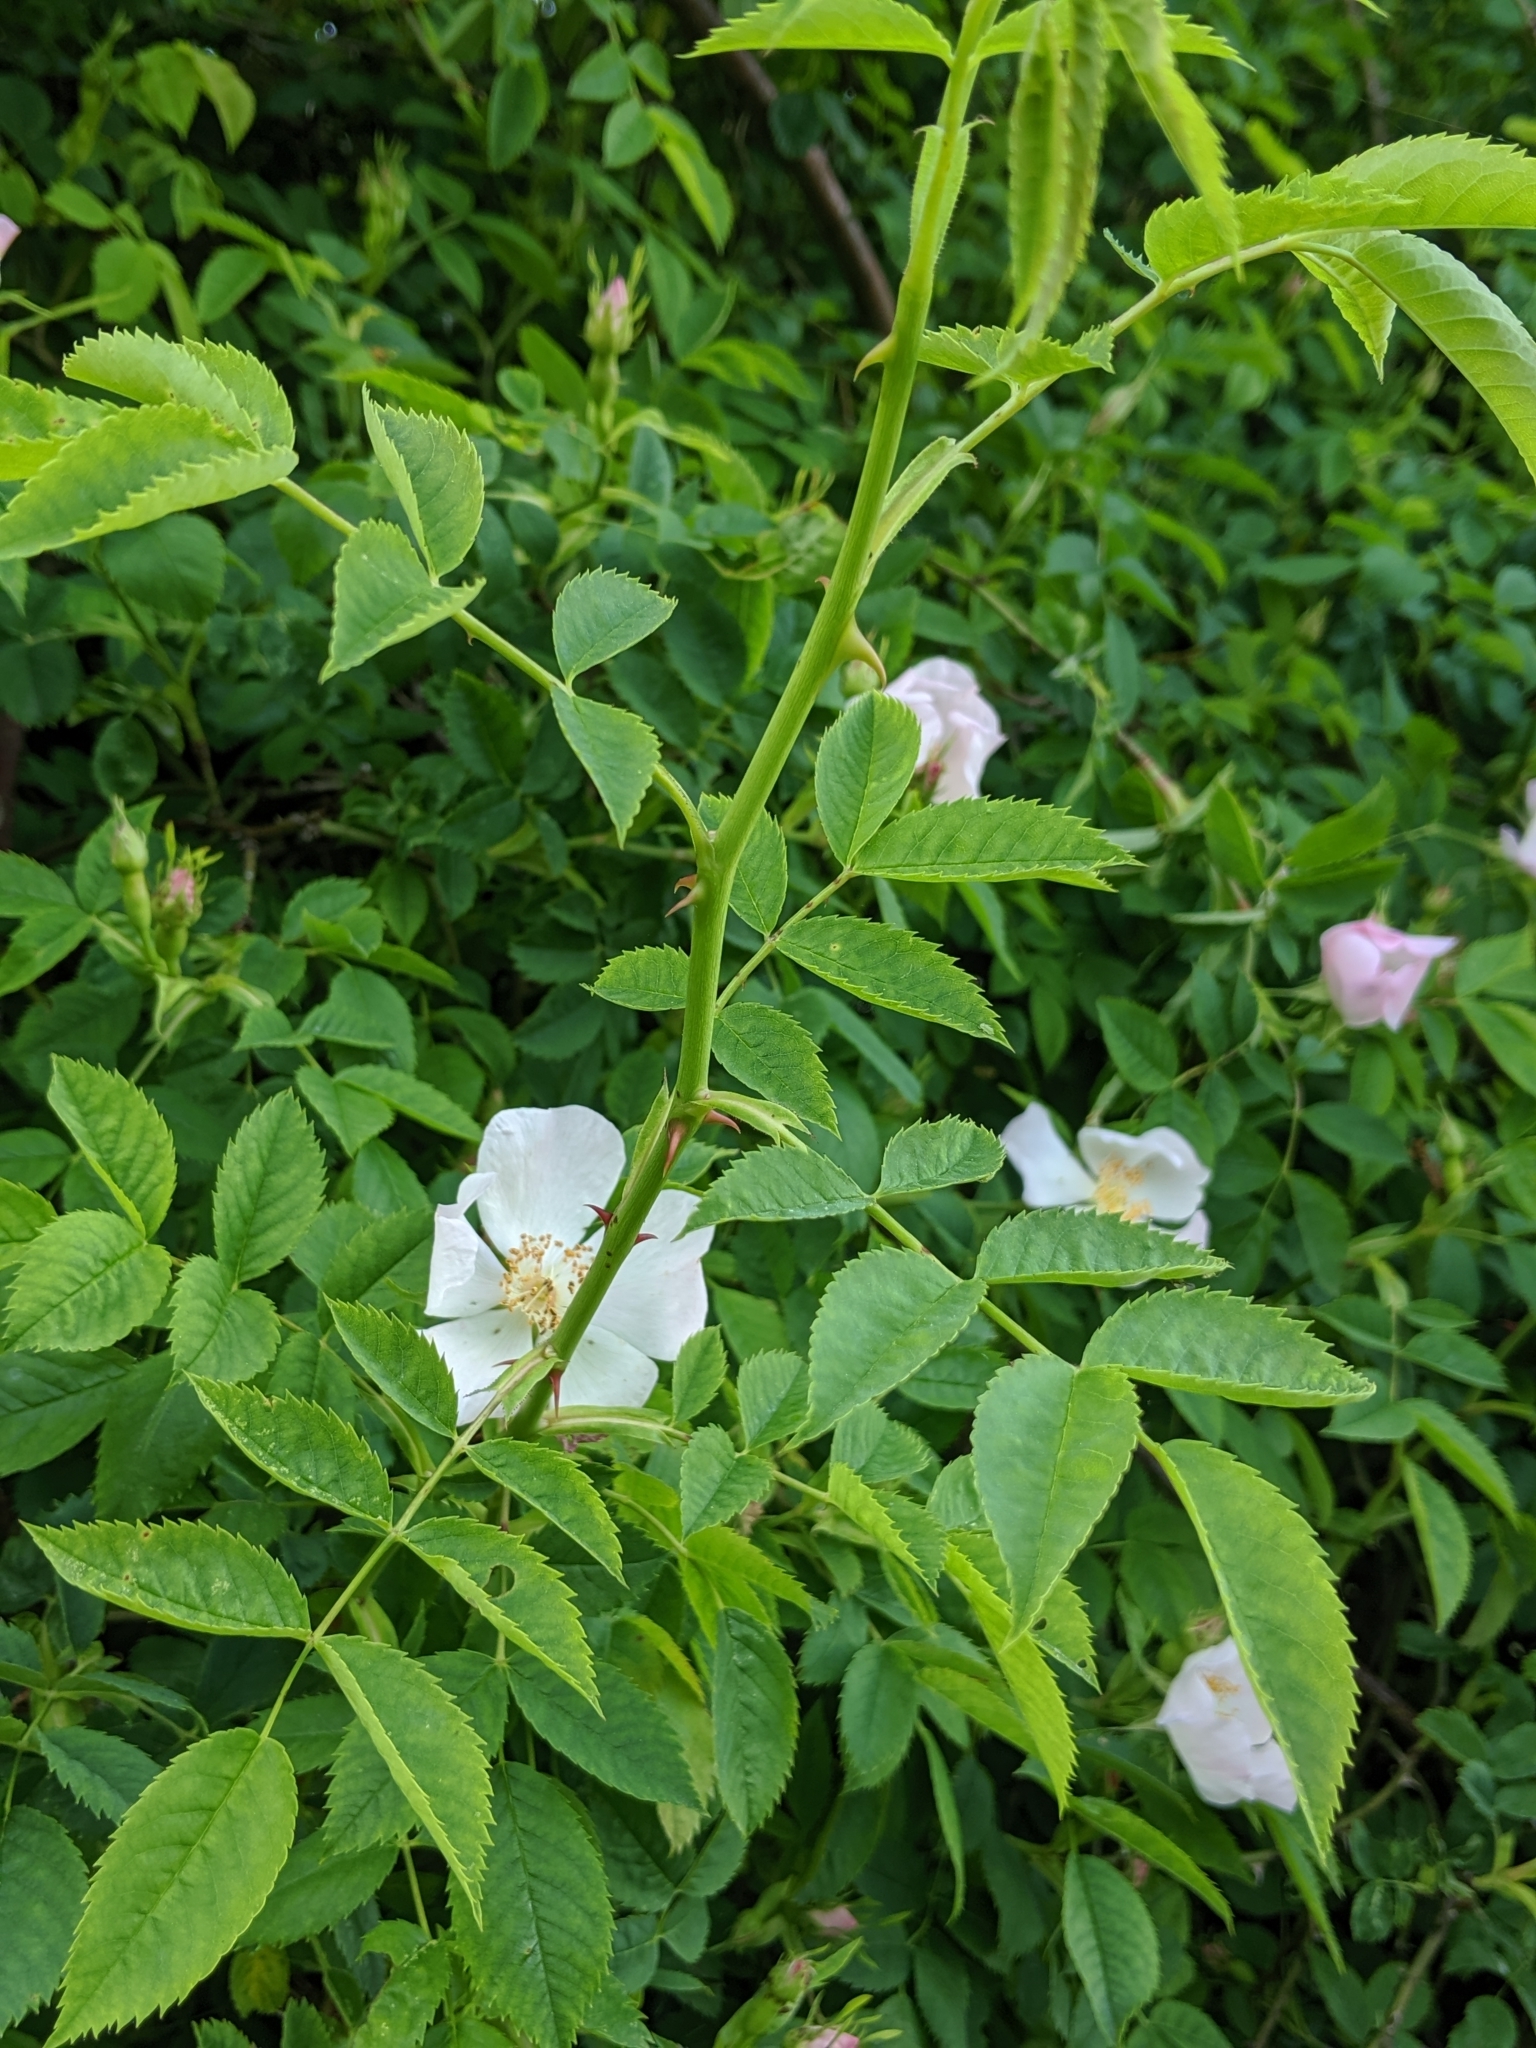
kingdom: Plantae
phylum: Tracheophyta
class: Magnoliopsida
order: Rosales
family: Rosaceae
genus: Rosa
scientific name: Rosa canina
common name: Dog rose
